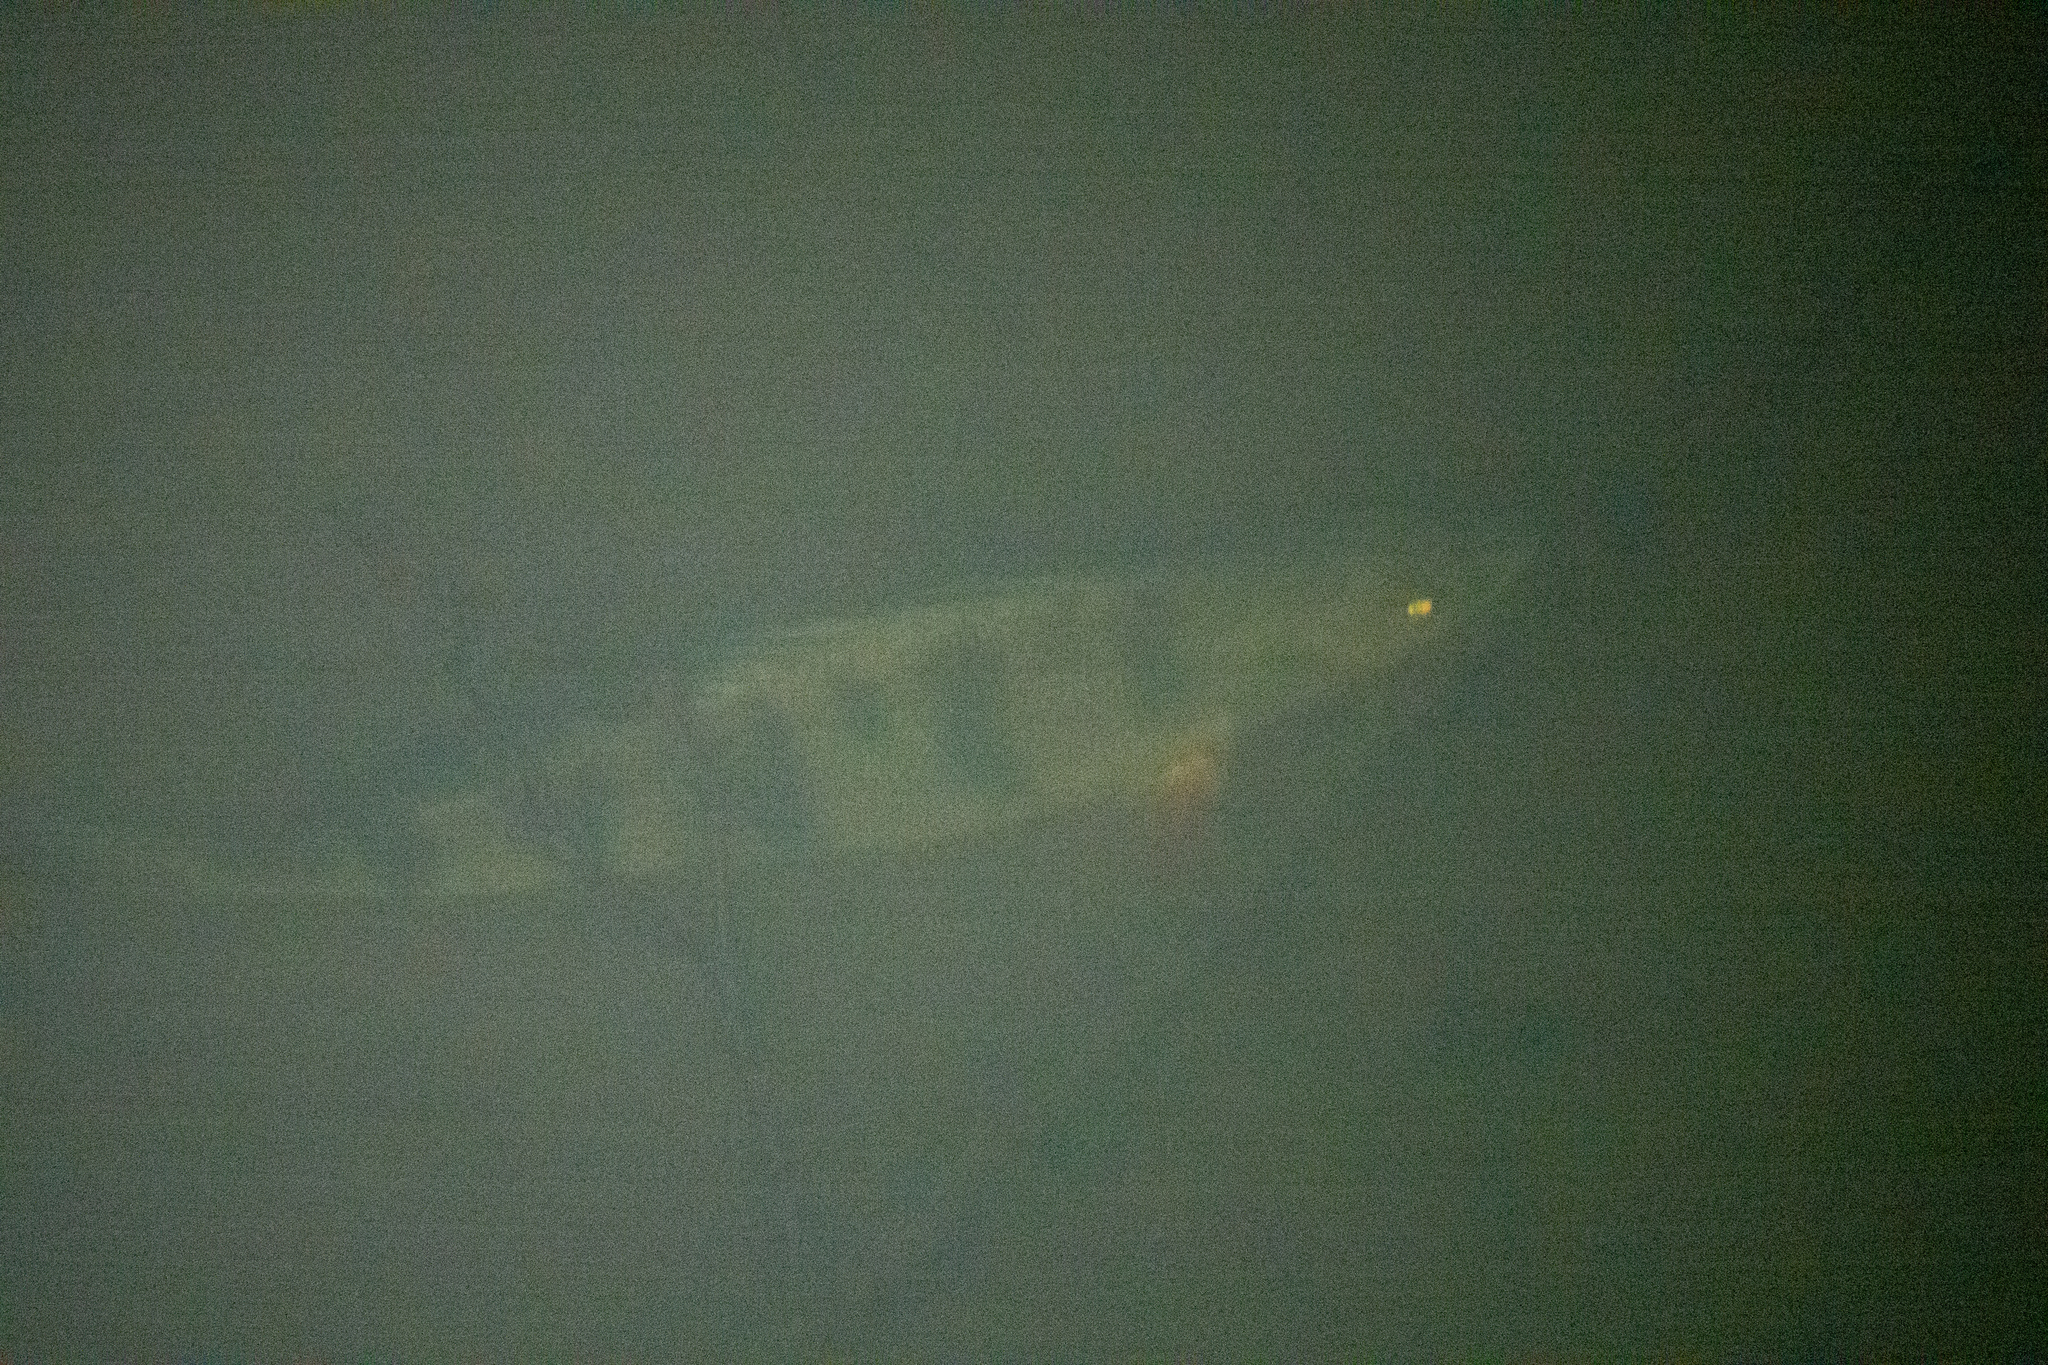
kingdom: Animalia
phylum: Chordata
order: Perciformes
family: Percidae
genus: Perca
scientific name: Perca fluviatilis
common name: Perch
